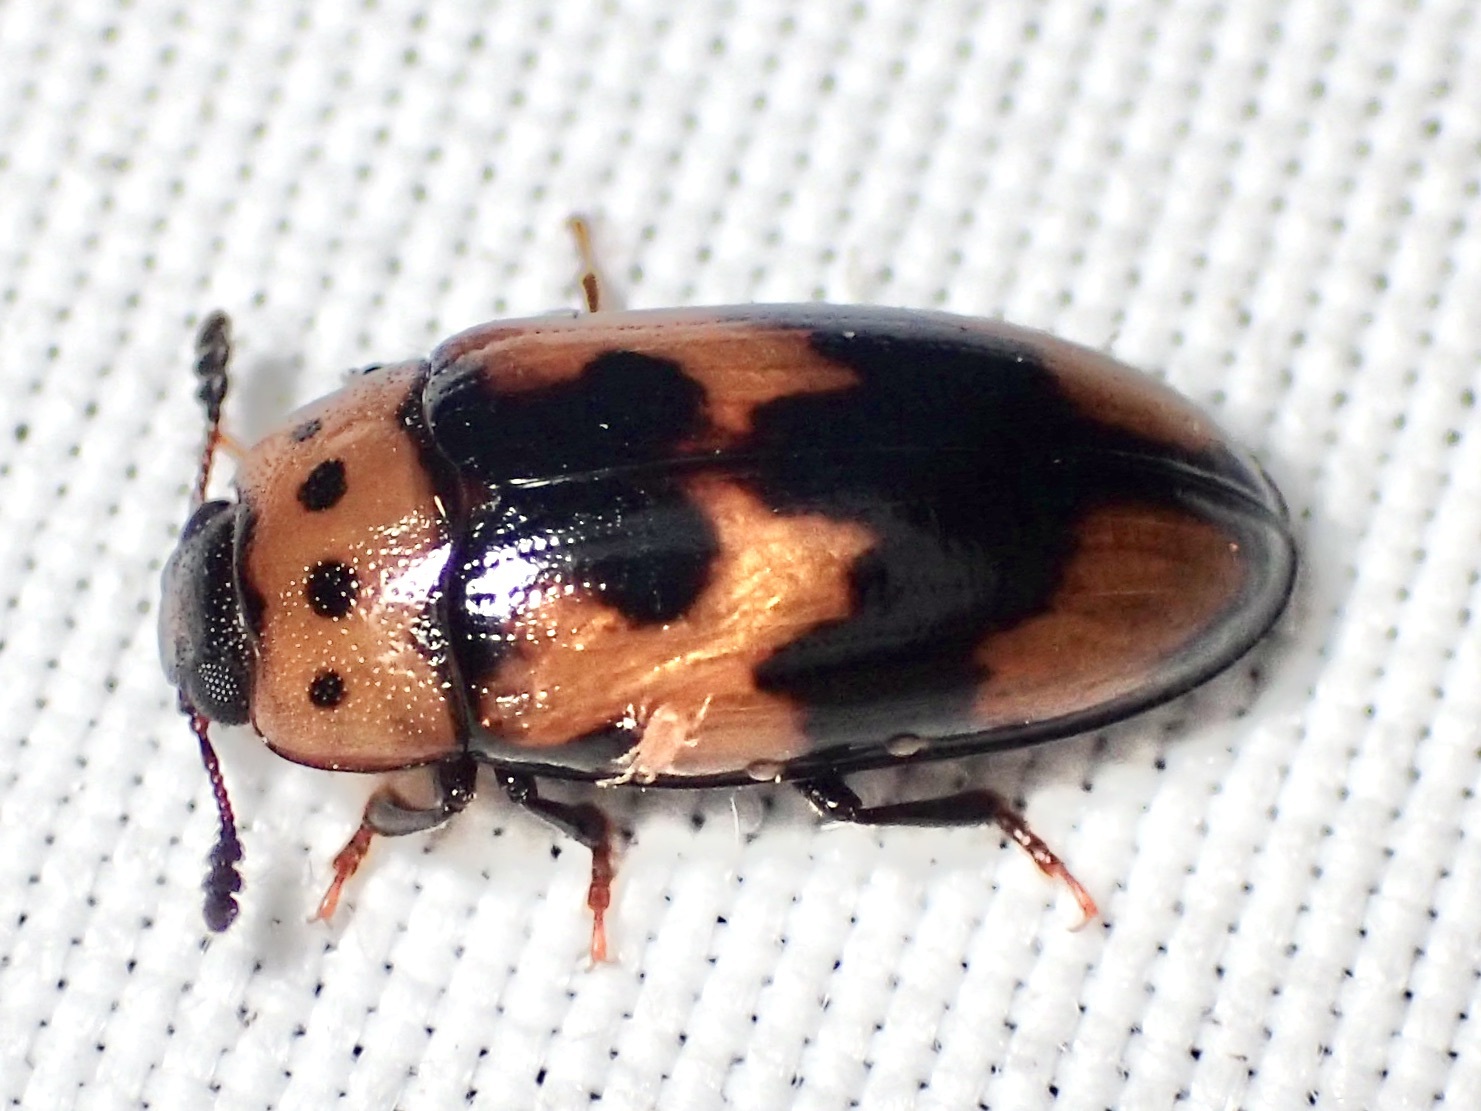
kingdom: Animalia
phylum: Arthropoda
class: Insecta
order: Coleoptera
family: Erotylidae
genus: Ischyrus
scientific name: Ischyrus quadripunctatus
